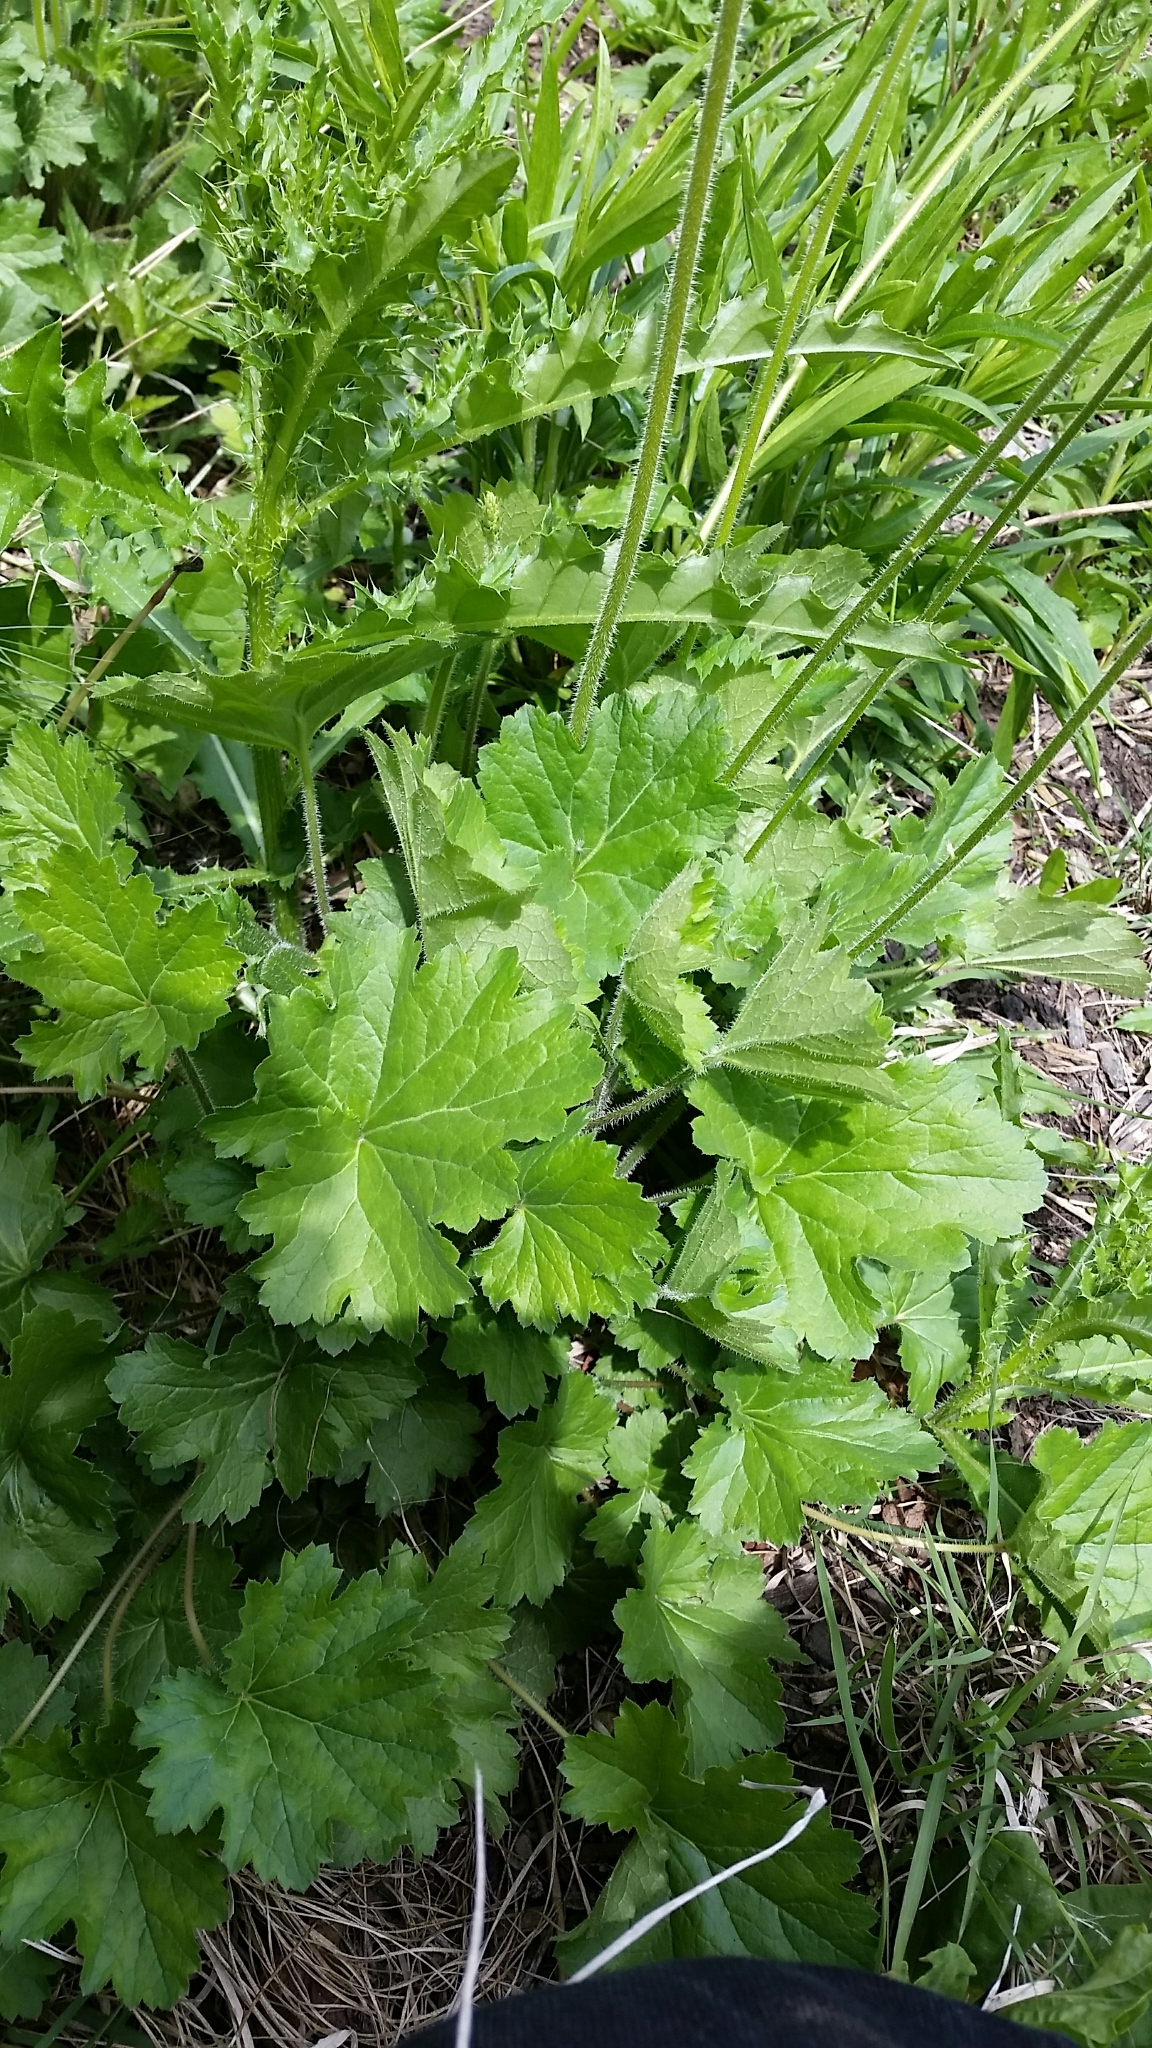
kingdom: Plantae
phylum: Tracheophyta
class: Magnoliopsida
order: Saxifragales
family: Saxifragaceae
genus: Heuchera
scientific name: Heuchera richardsonii
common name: Richardson's alumroot
